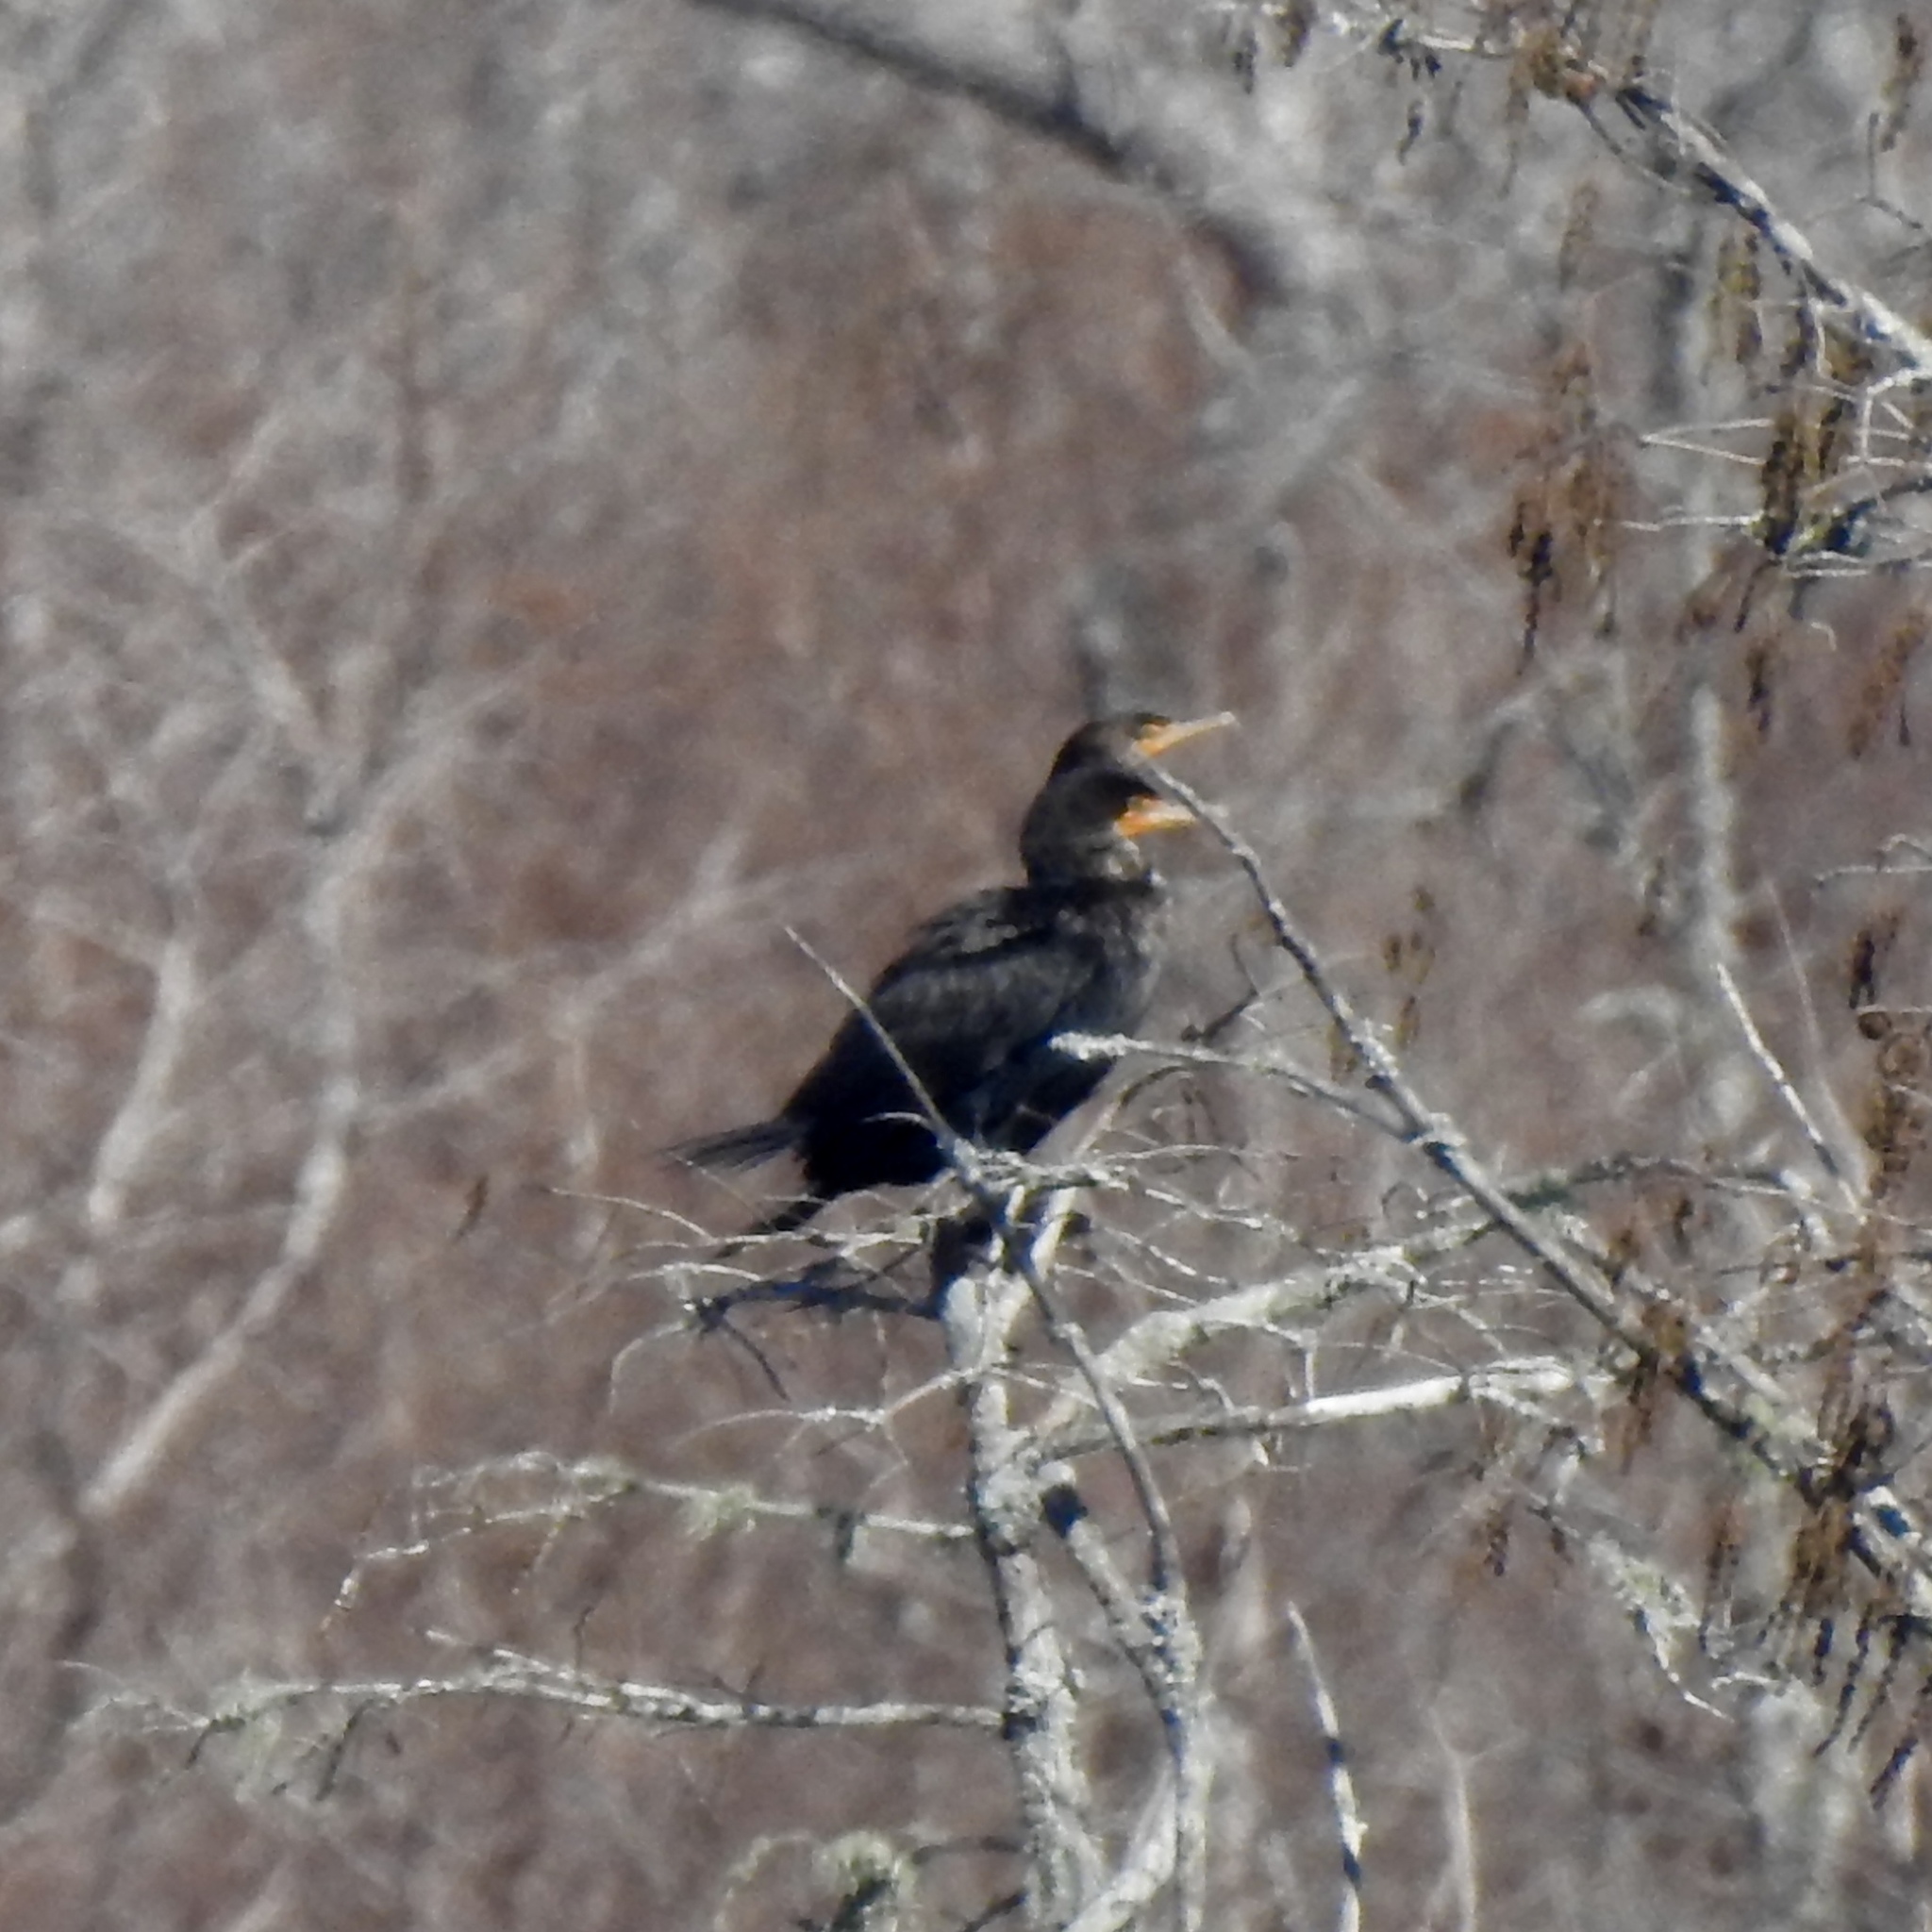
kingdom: Animalia
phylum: Chordata
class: Aves
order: Suliformes
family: Phalacrocoracidae
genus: Phalacrocorax
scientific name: Phalacrocorax auritus
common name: Double-crested cormorant
